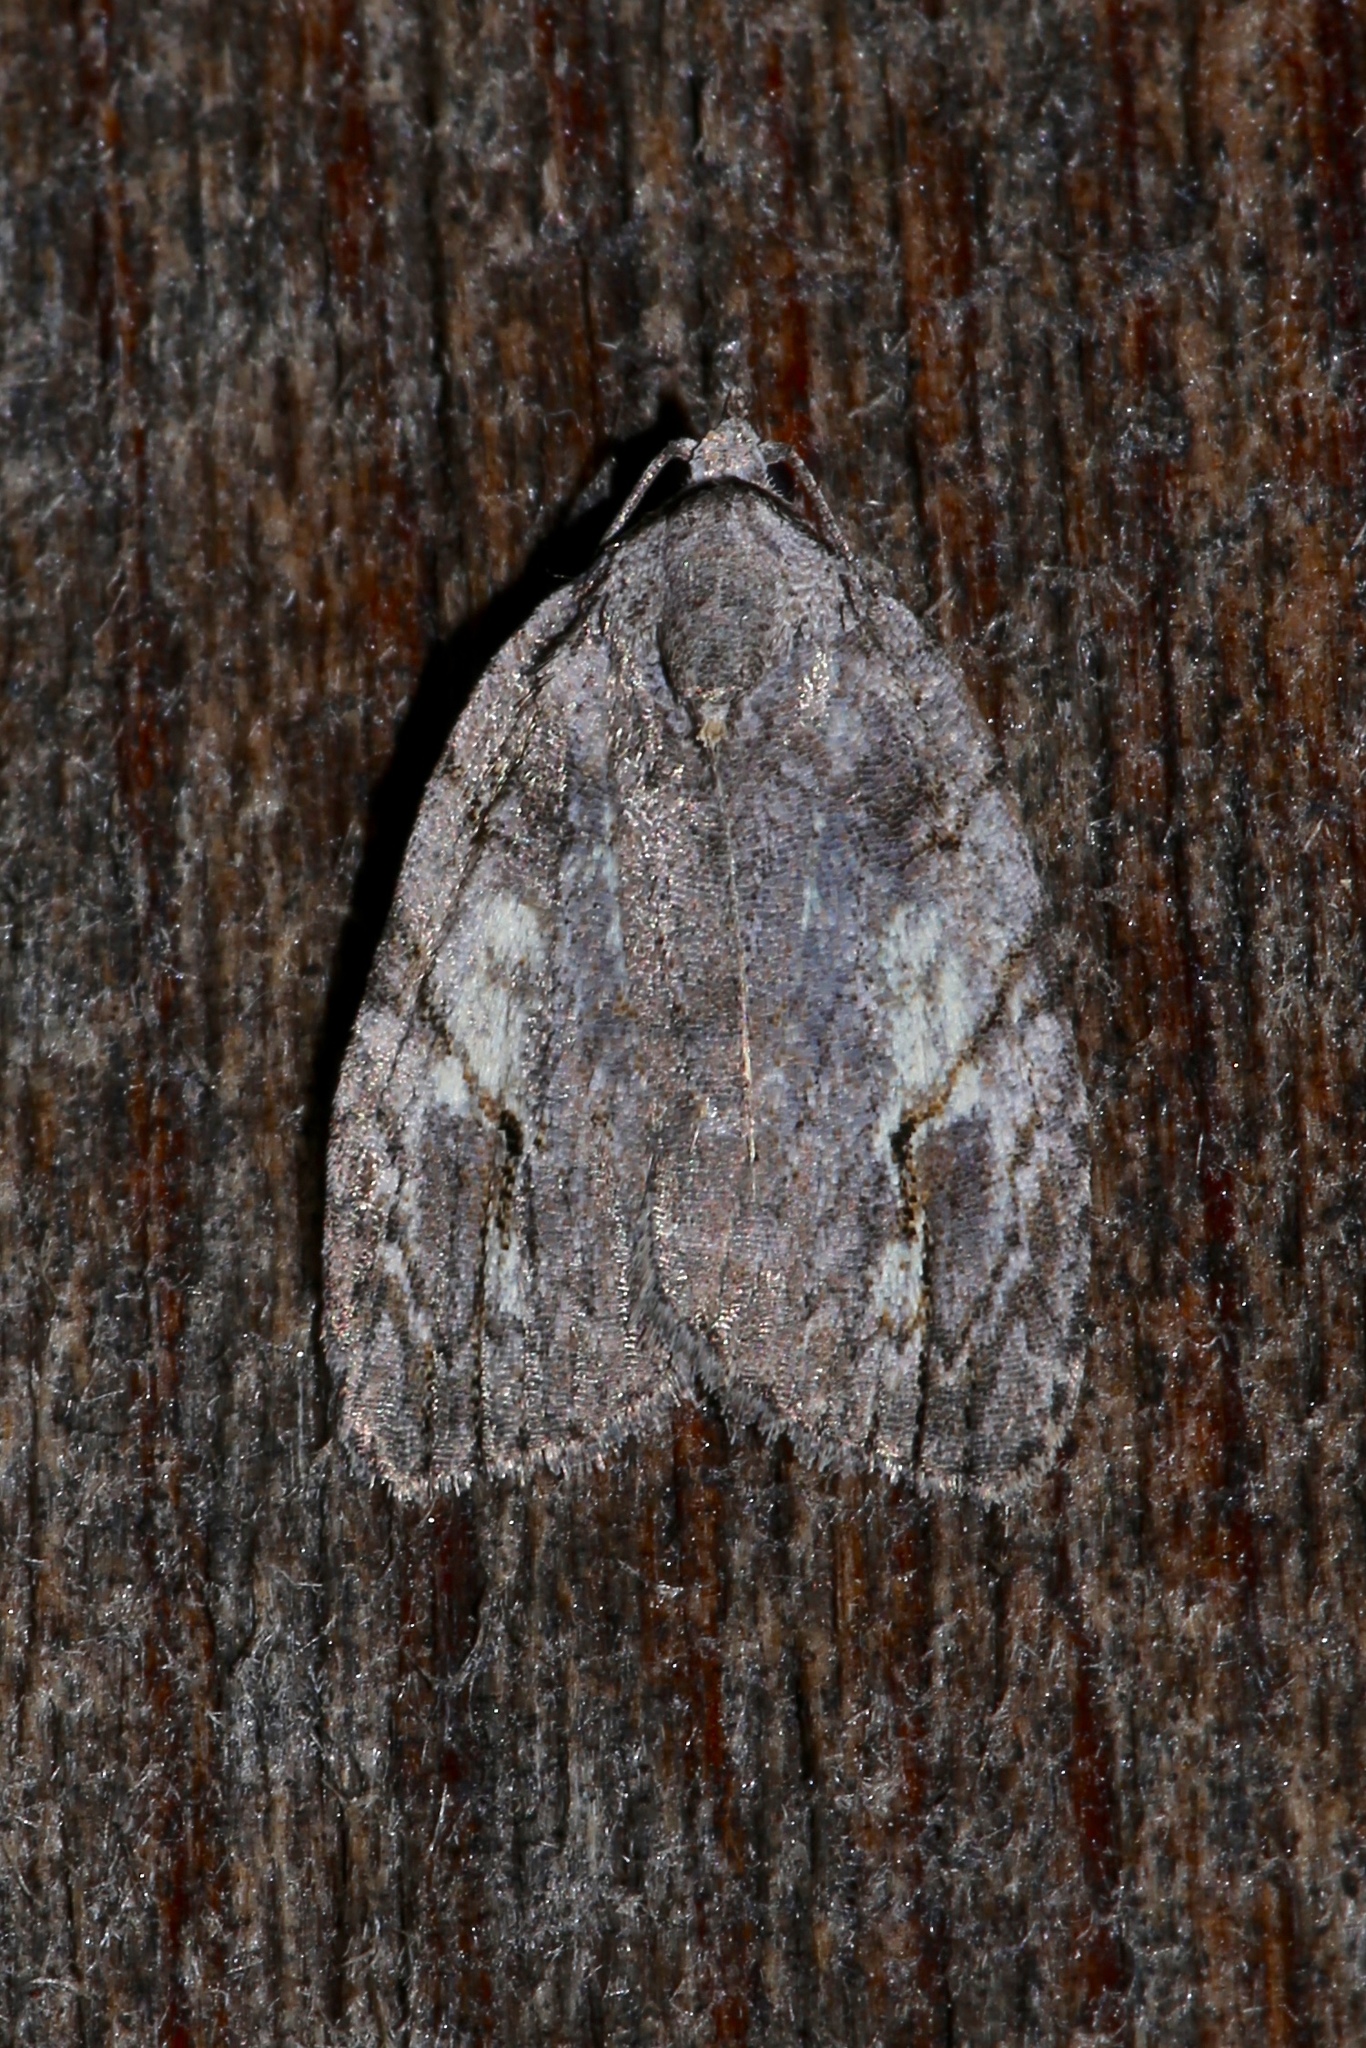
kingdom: Animalia
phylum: Arthropoda
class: Insecta
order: Lepidoptera
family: Noctuidae
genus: Balsa
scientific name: Balsa labecula
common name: White-blotched balsa moth
